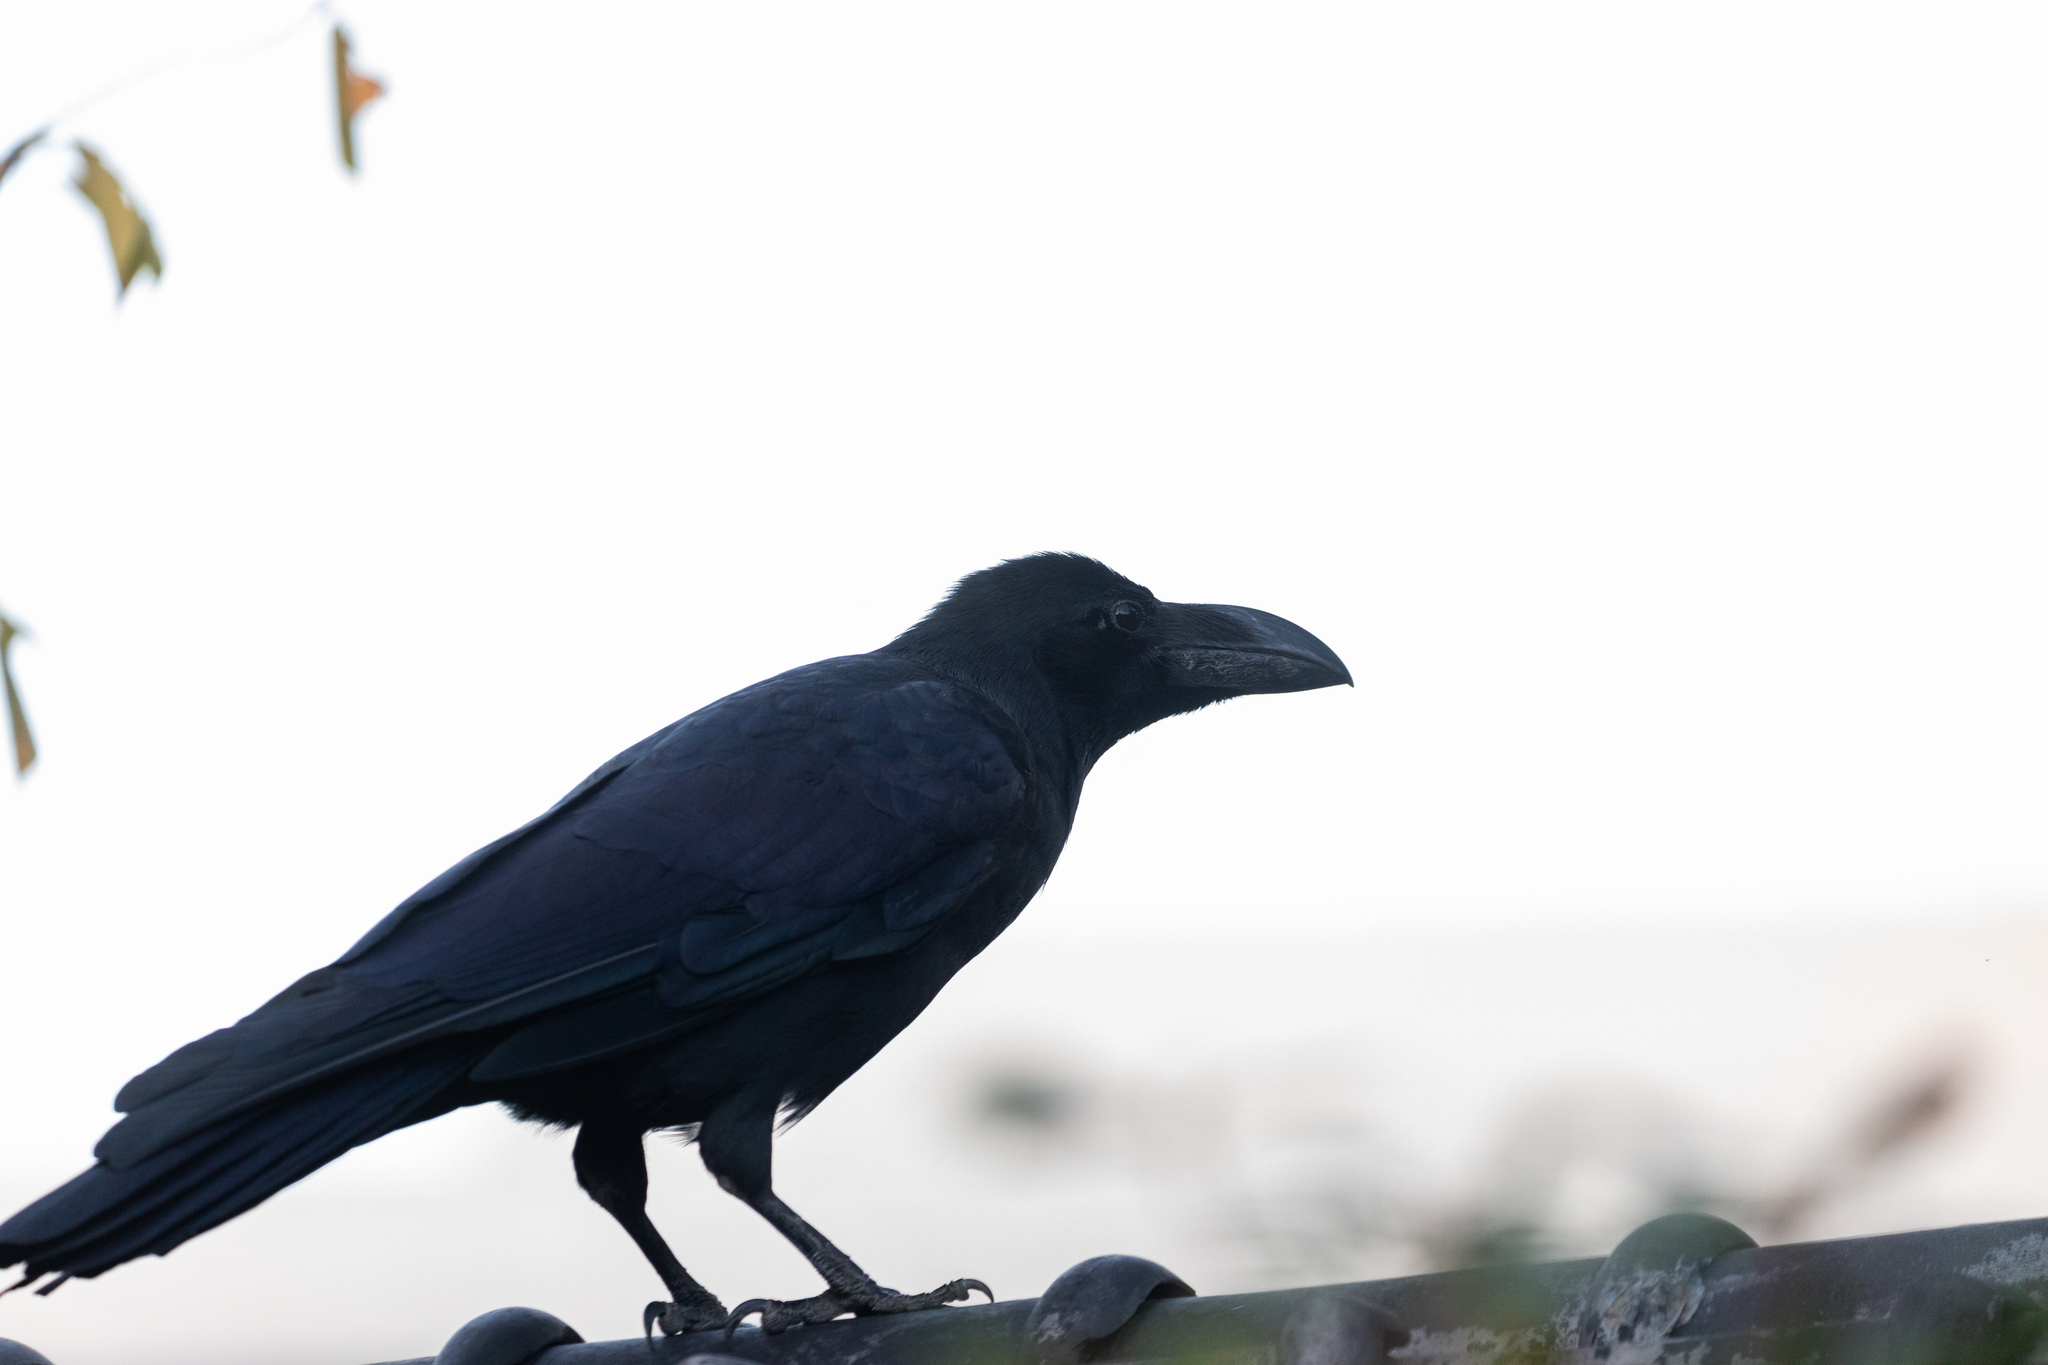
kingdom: Animalia
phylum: Chordata
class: Aves
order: Passeriformes
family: Corvidae
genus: Corvus
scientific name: Corvus macrorhynchos
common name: Large-billed crow
